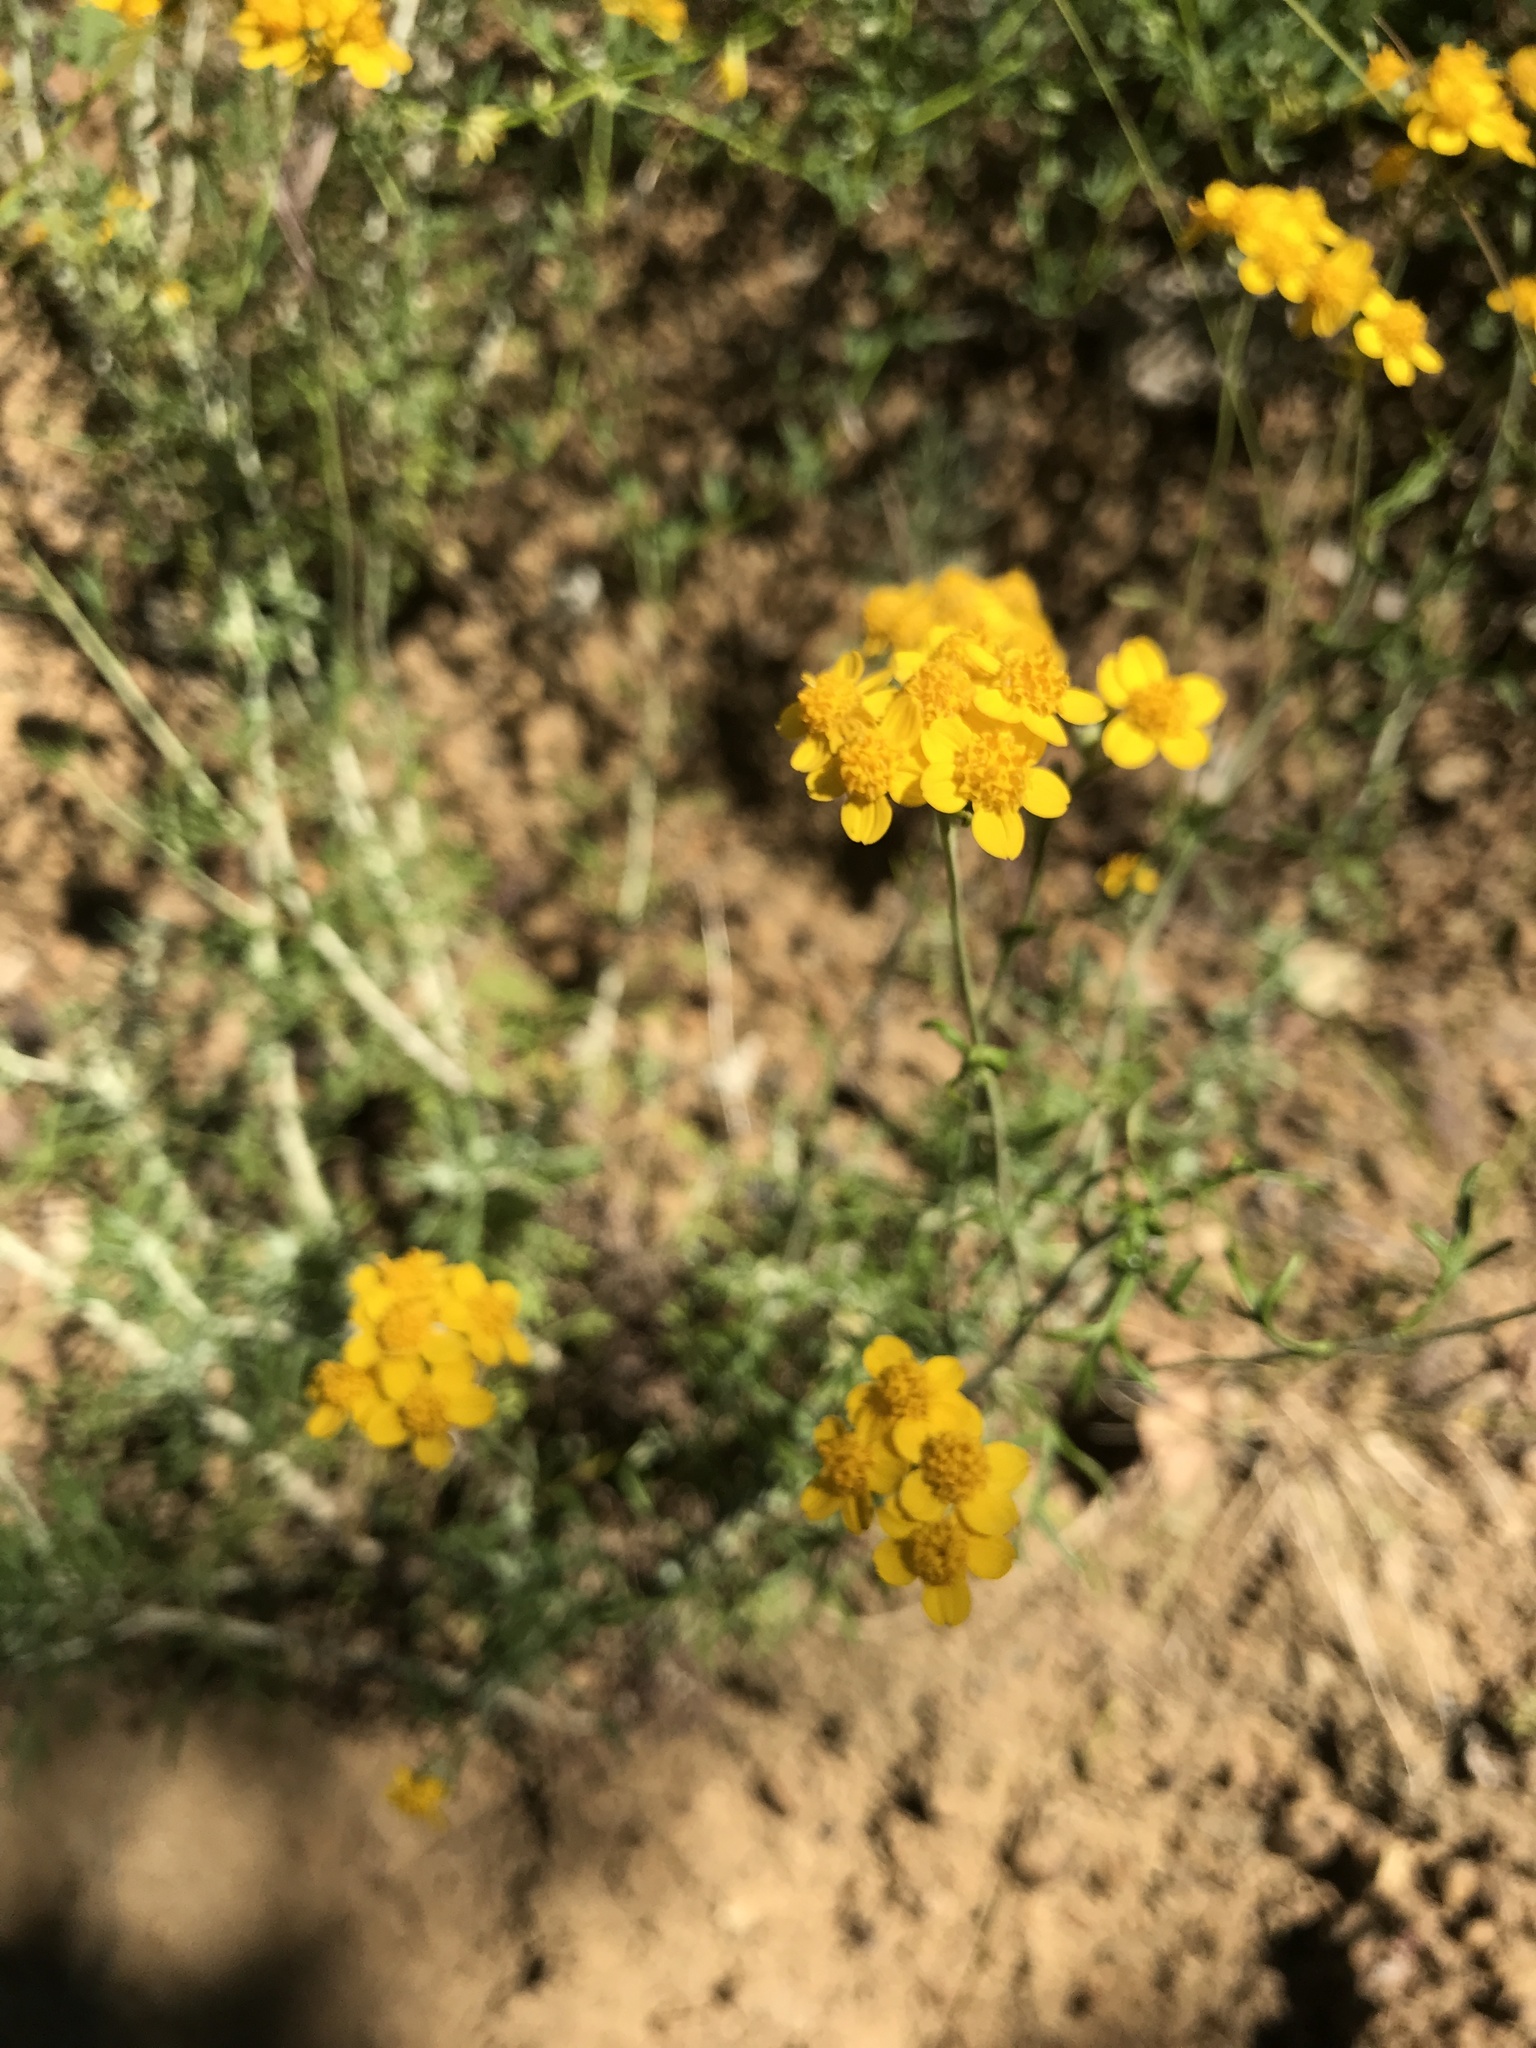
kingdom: Plantae
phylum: Tracheophyta
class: Magnoliopsida
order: Asterales
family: Asteraceae
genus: Eriophyllum
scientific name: Eriophyllum confertiflorum
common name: Golden-yarrow
